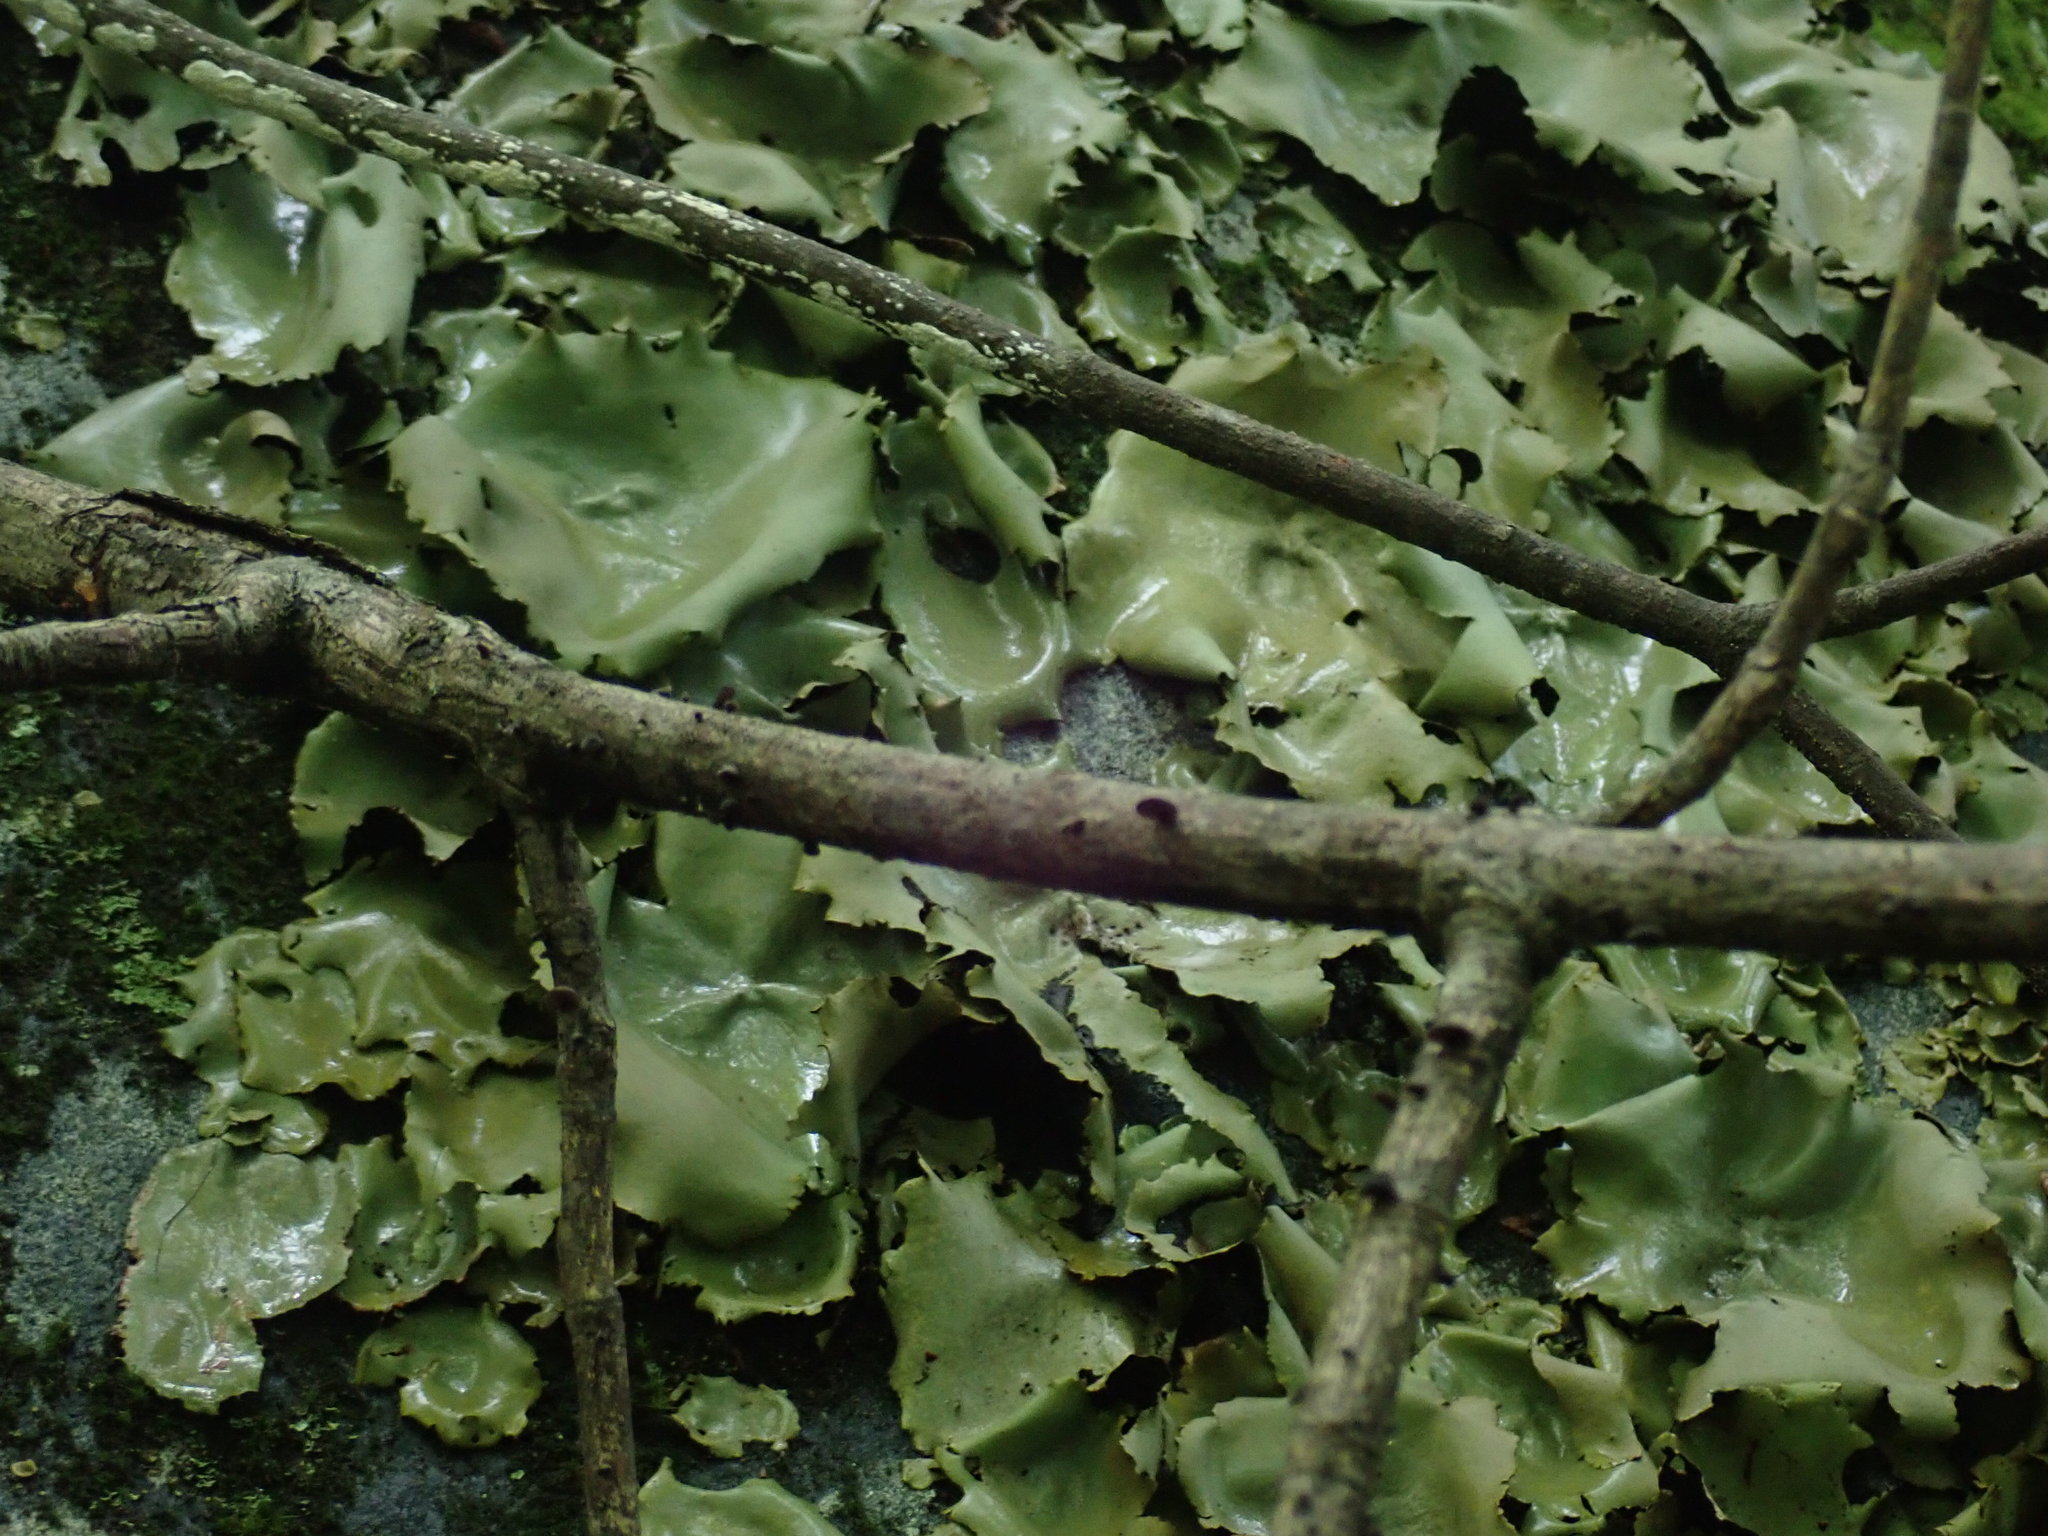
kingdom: Fungi
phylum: Ascomycota
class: Lecanoromycetes
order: Umbilicariales
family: Umbilicariaceae
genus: Umbilicaria
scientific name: Umbilicaria mammulata
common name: Smooth rock tripe
